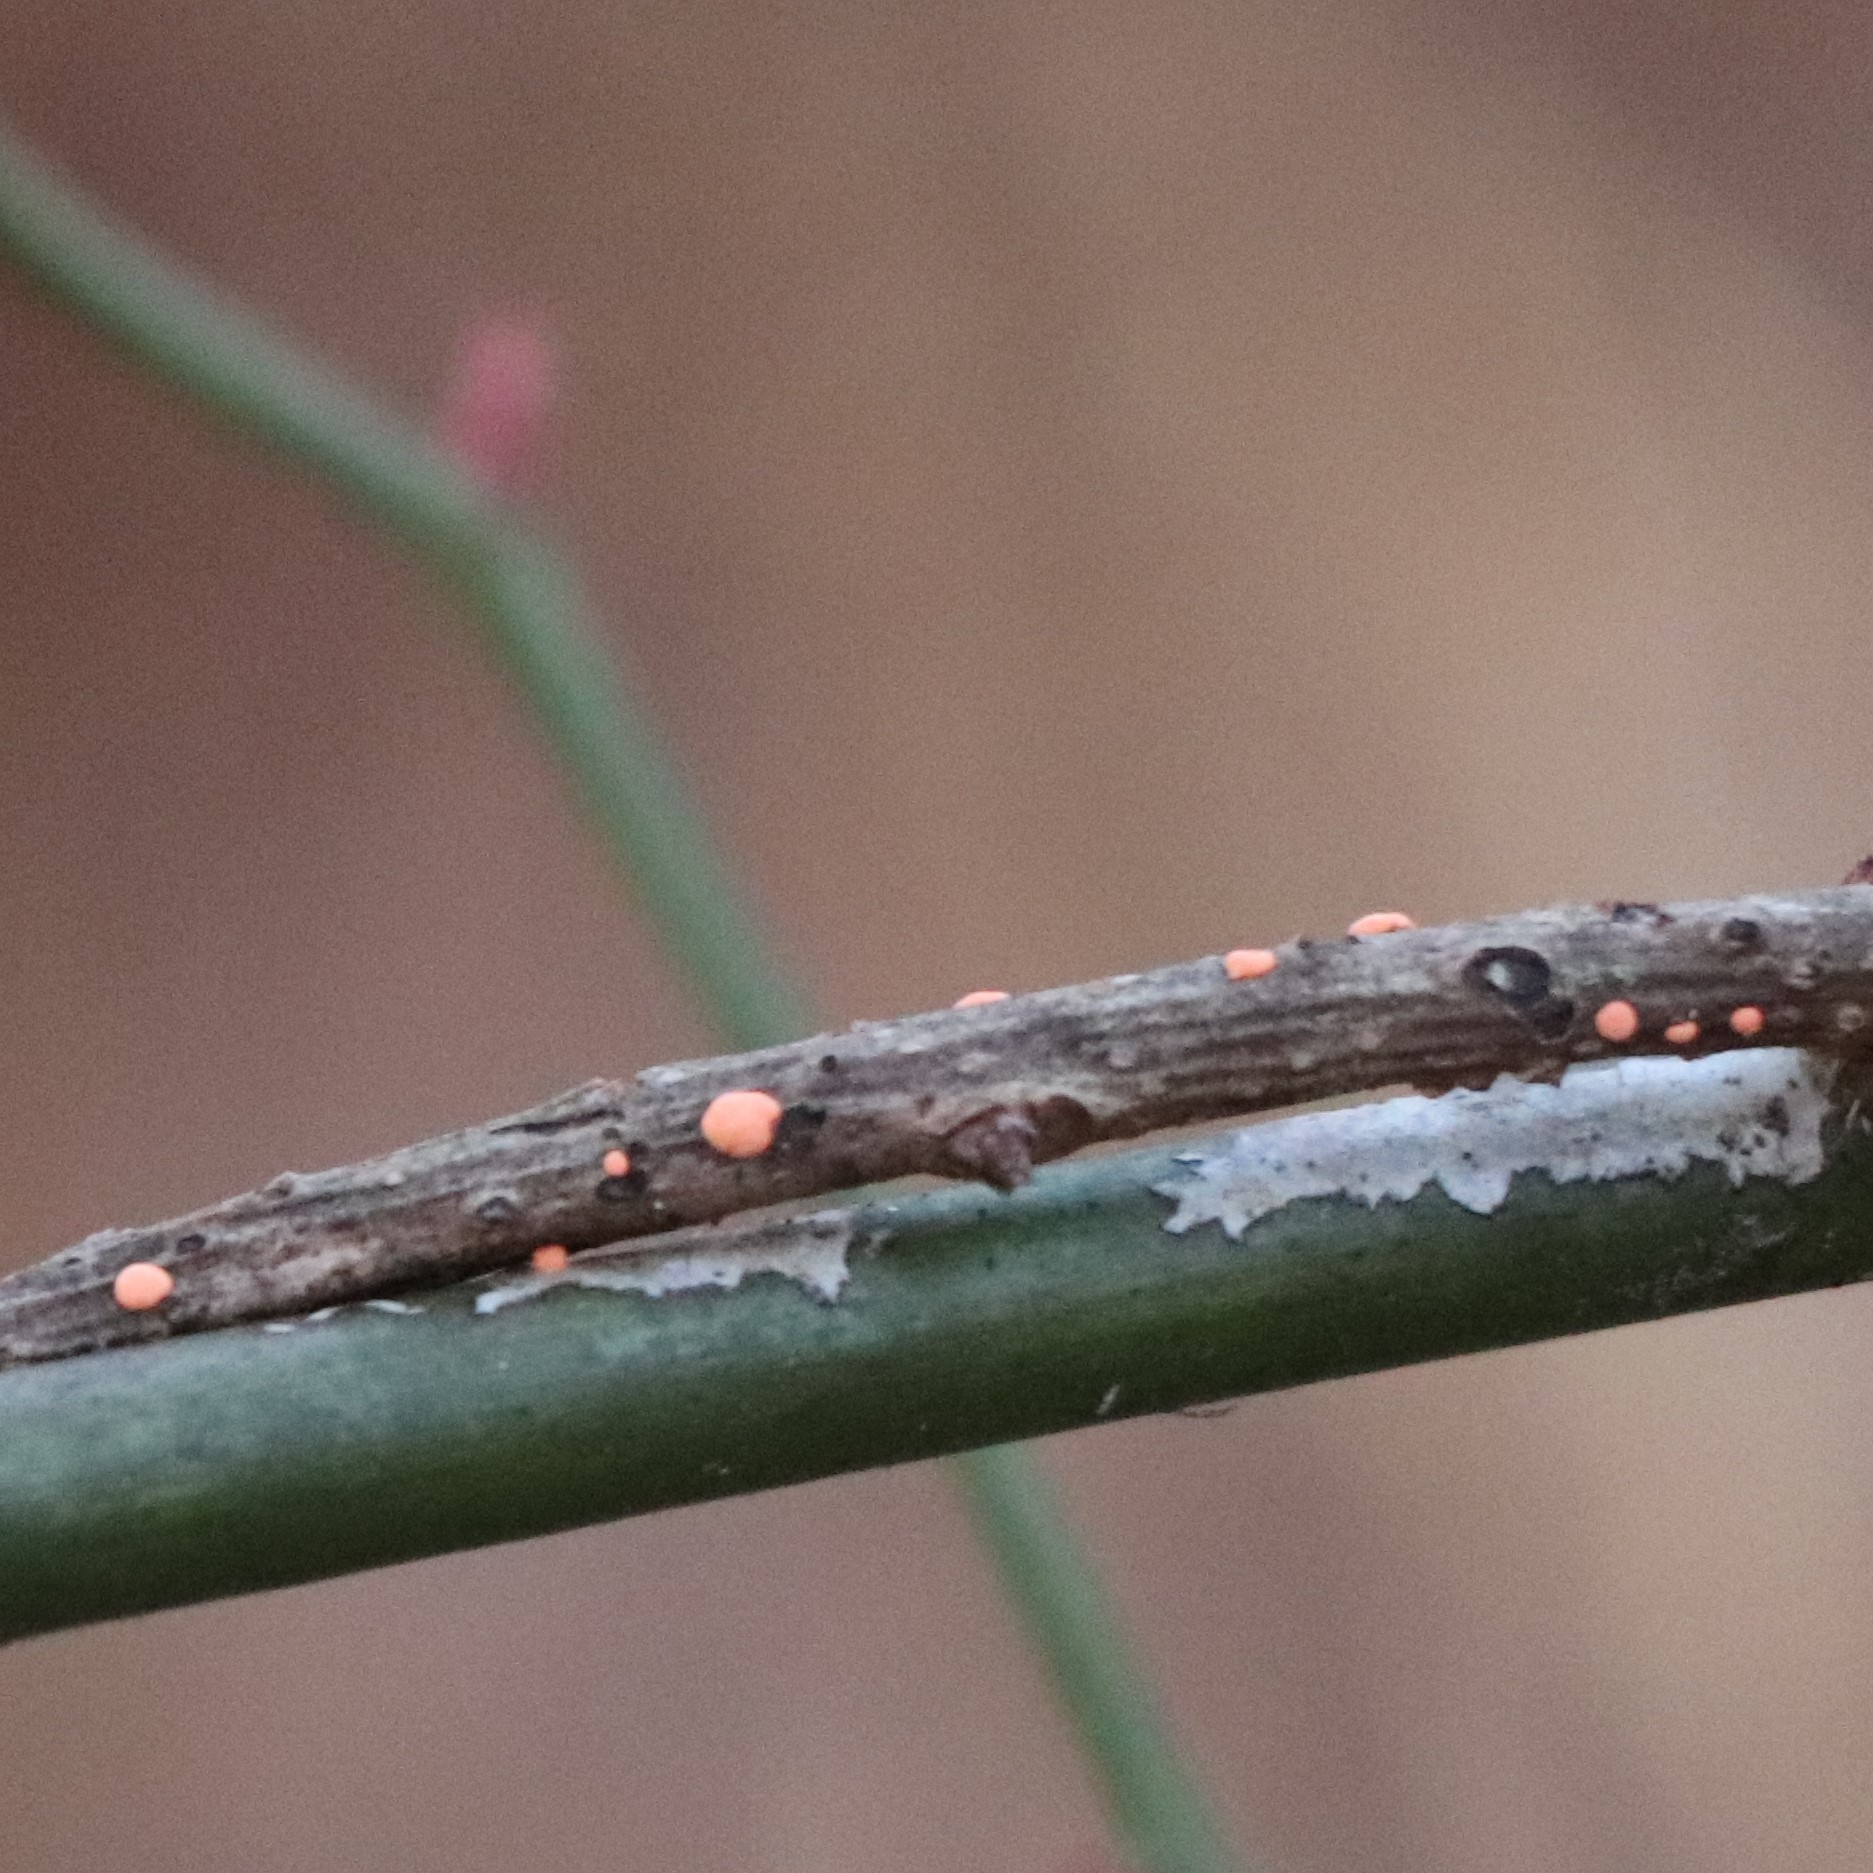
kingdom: Fungi
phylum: Ascomycota
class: Sordariomycetes
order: Hypocreales
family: Nectriaceae
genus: Nectria
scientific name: Nectria cinnabarina
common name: Coral spot
